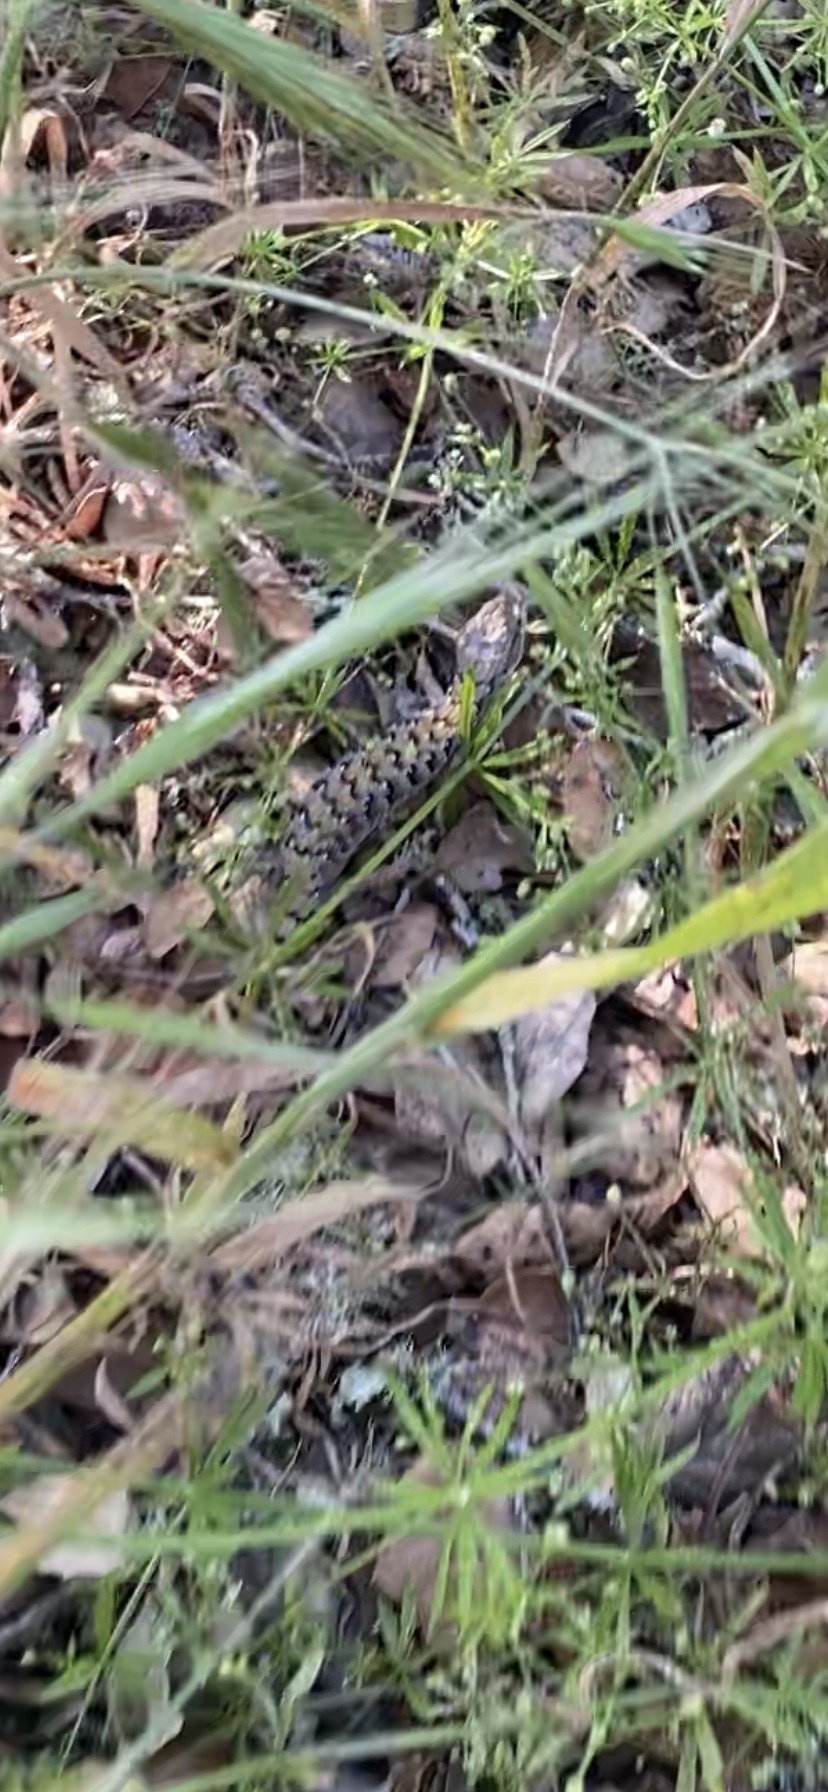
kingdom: Animalia
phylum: Chordata
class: Squamata
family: Anguidae
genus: Elgaria
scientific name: Elgaria multicarinata
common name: Southern alligator lizard
